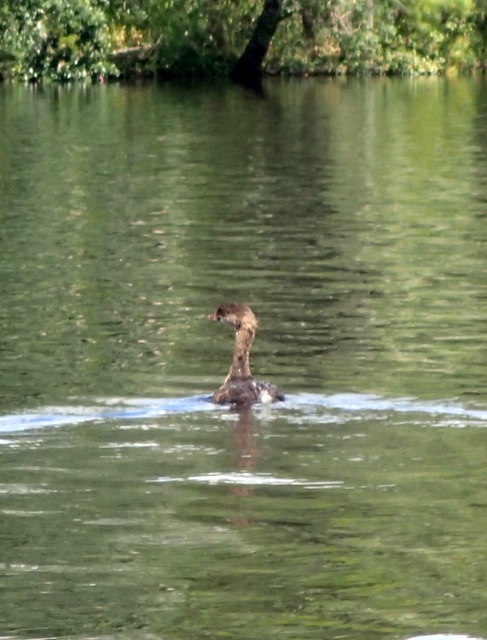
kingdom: Animalia
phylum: Chordata
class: Aves
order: Podicipediformes
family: Podicipedidae
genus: Podilymbus
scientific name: Podilymbus podiceps
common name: Pied-billed grebe
